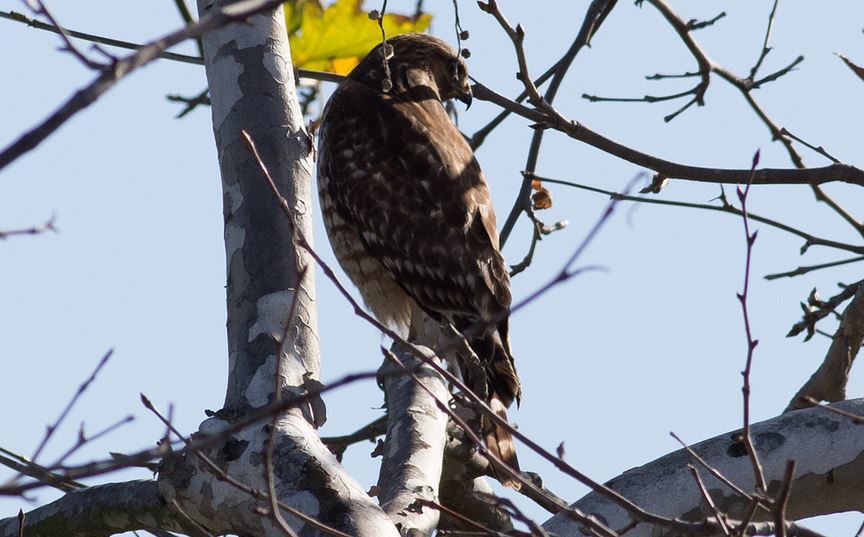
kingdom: Animalia
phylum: Chordata
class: Aves
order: Accipitriformes
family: Accipitridae
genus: Buteo
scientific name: Buteo lineatus
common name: Red-shouldered hawk
